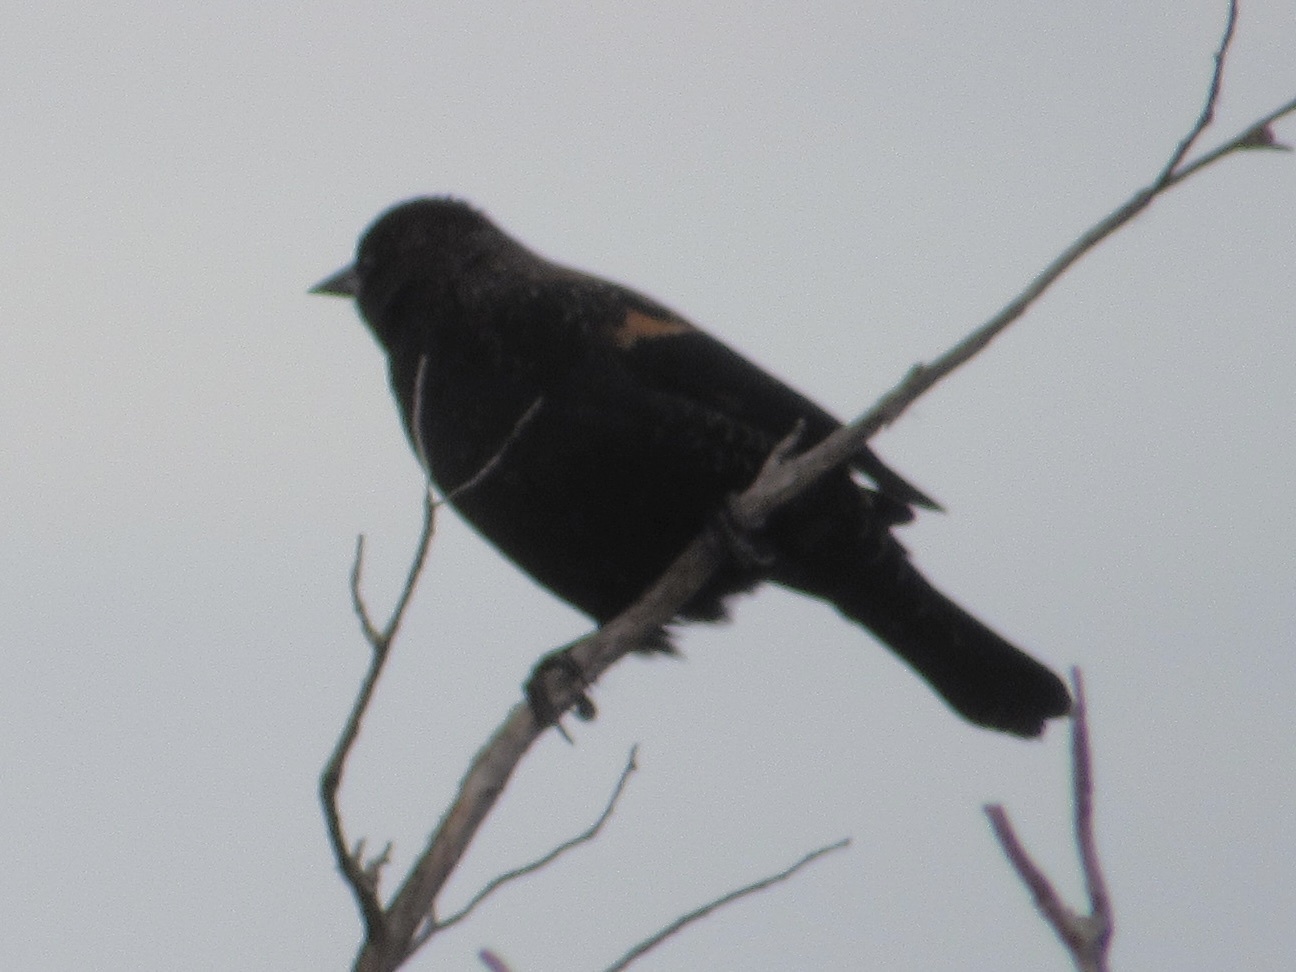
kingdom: Animalia
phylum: Chordata
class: Aves
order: Passeriformes
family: Icteridae
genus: Agelaius
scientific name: Agelaius phoeniceus
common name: Red-winged blackbird
